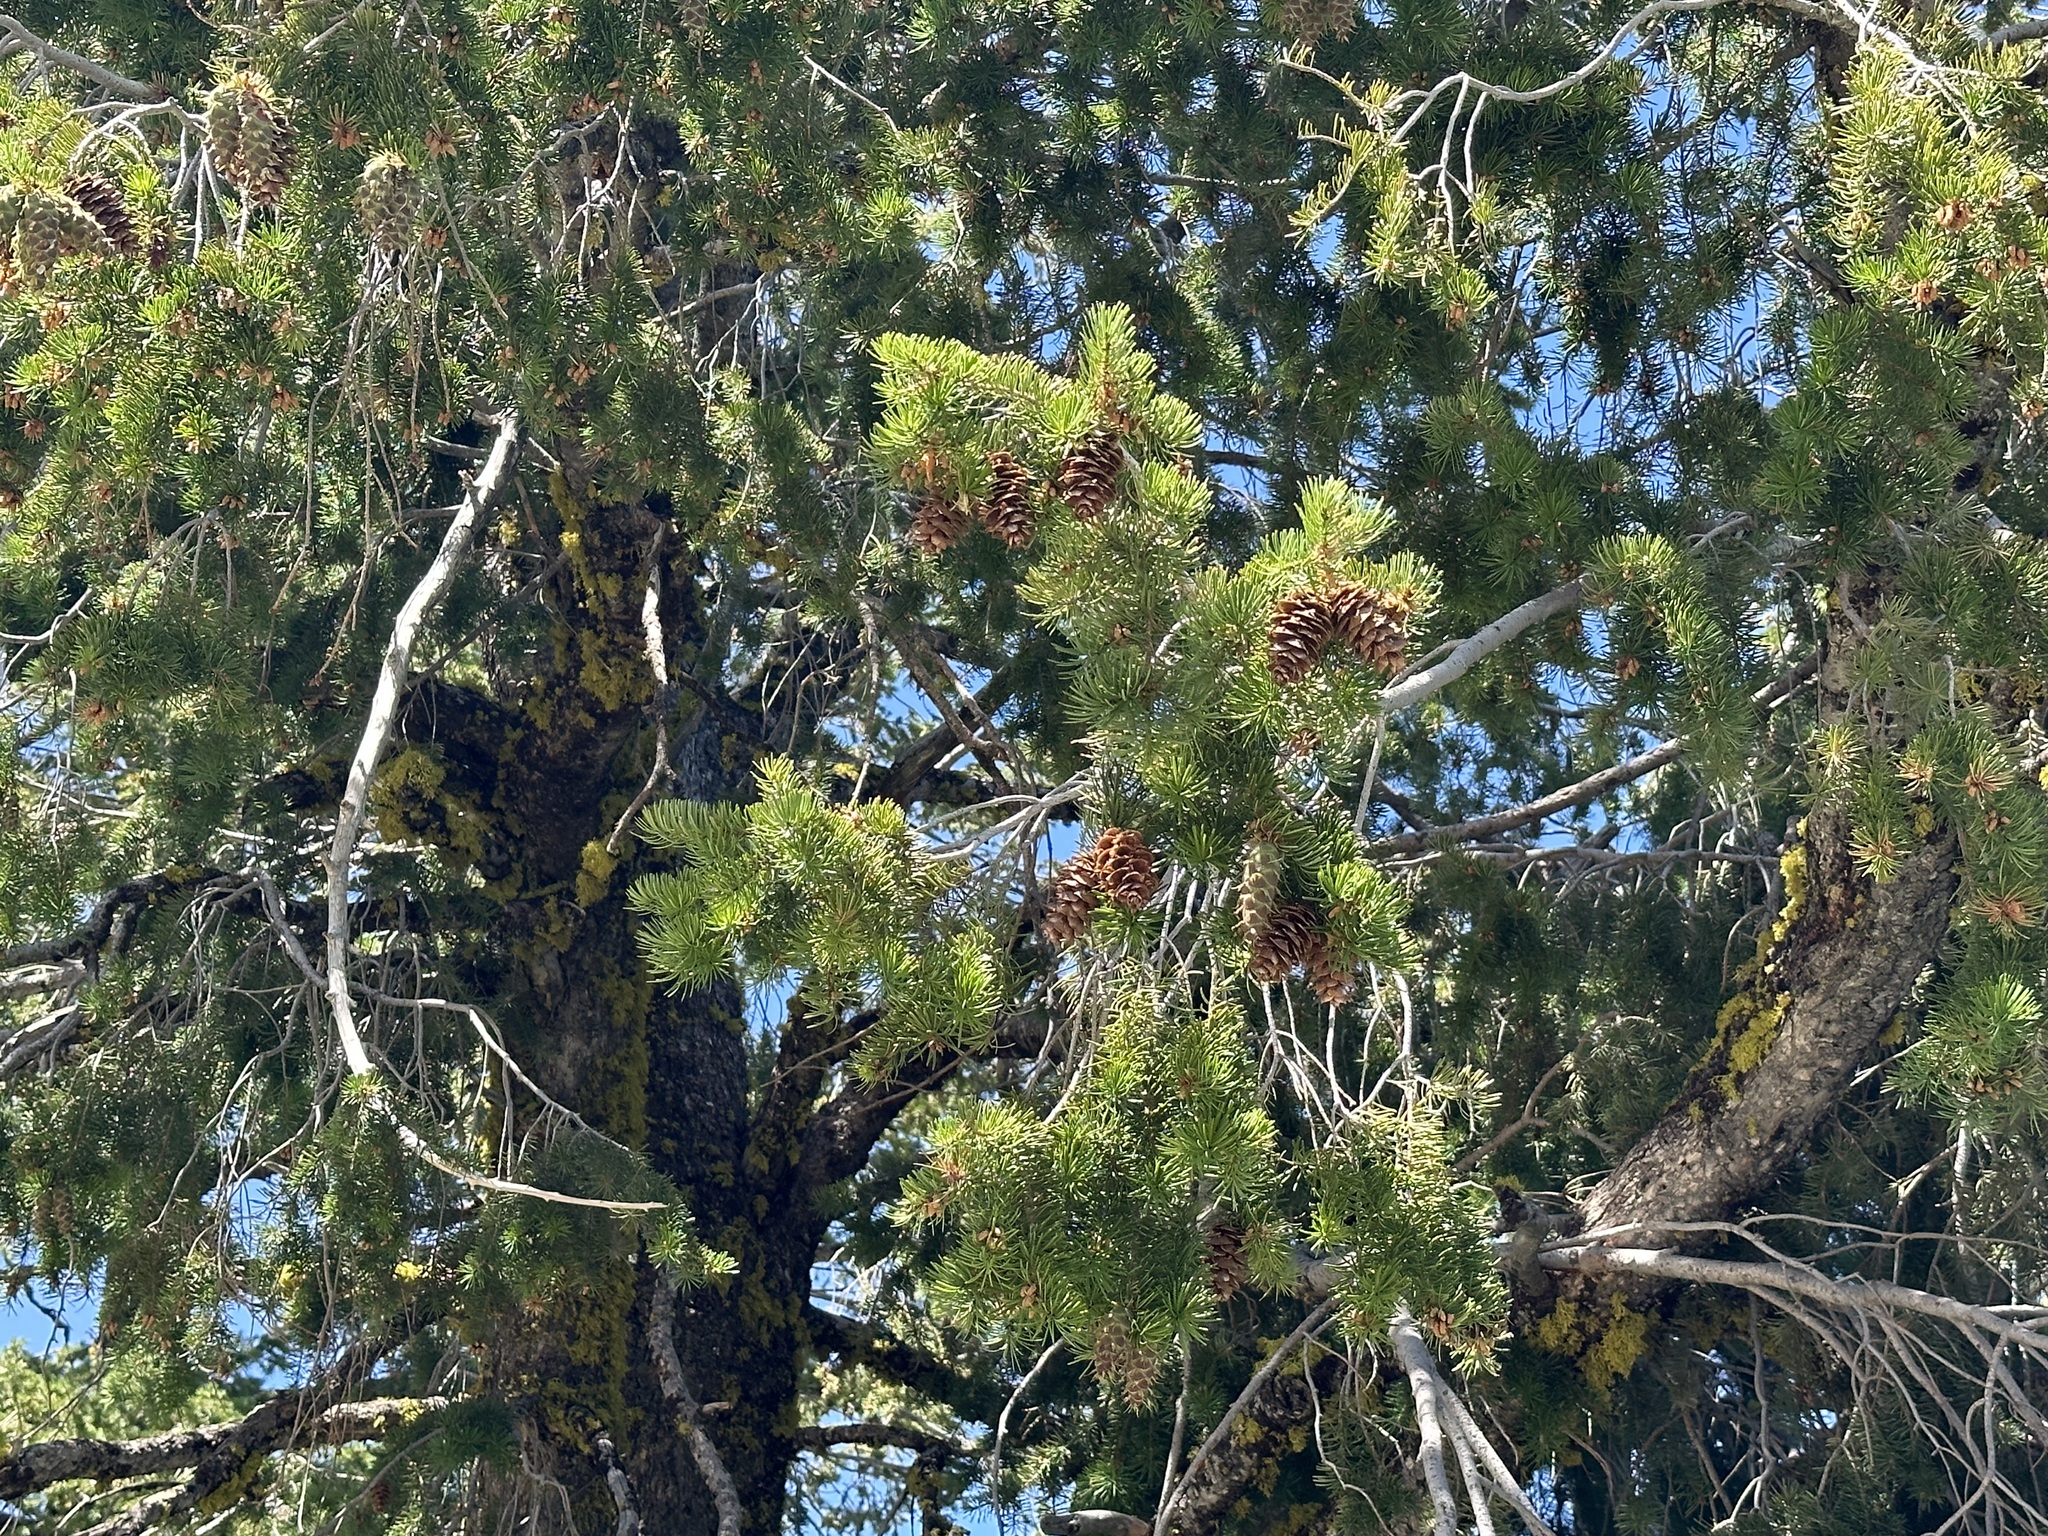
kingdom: Plantae
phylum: Tracheophyta
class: Pinopsida
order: Pinales
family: Pinaceae
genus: Pseudotsuga
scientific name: Pseudotsuga menziesii
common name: Douglas fir
